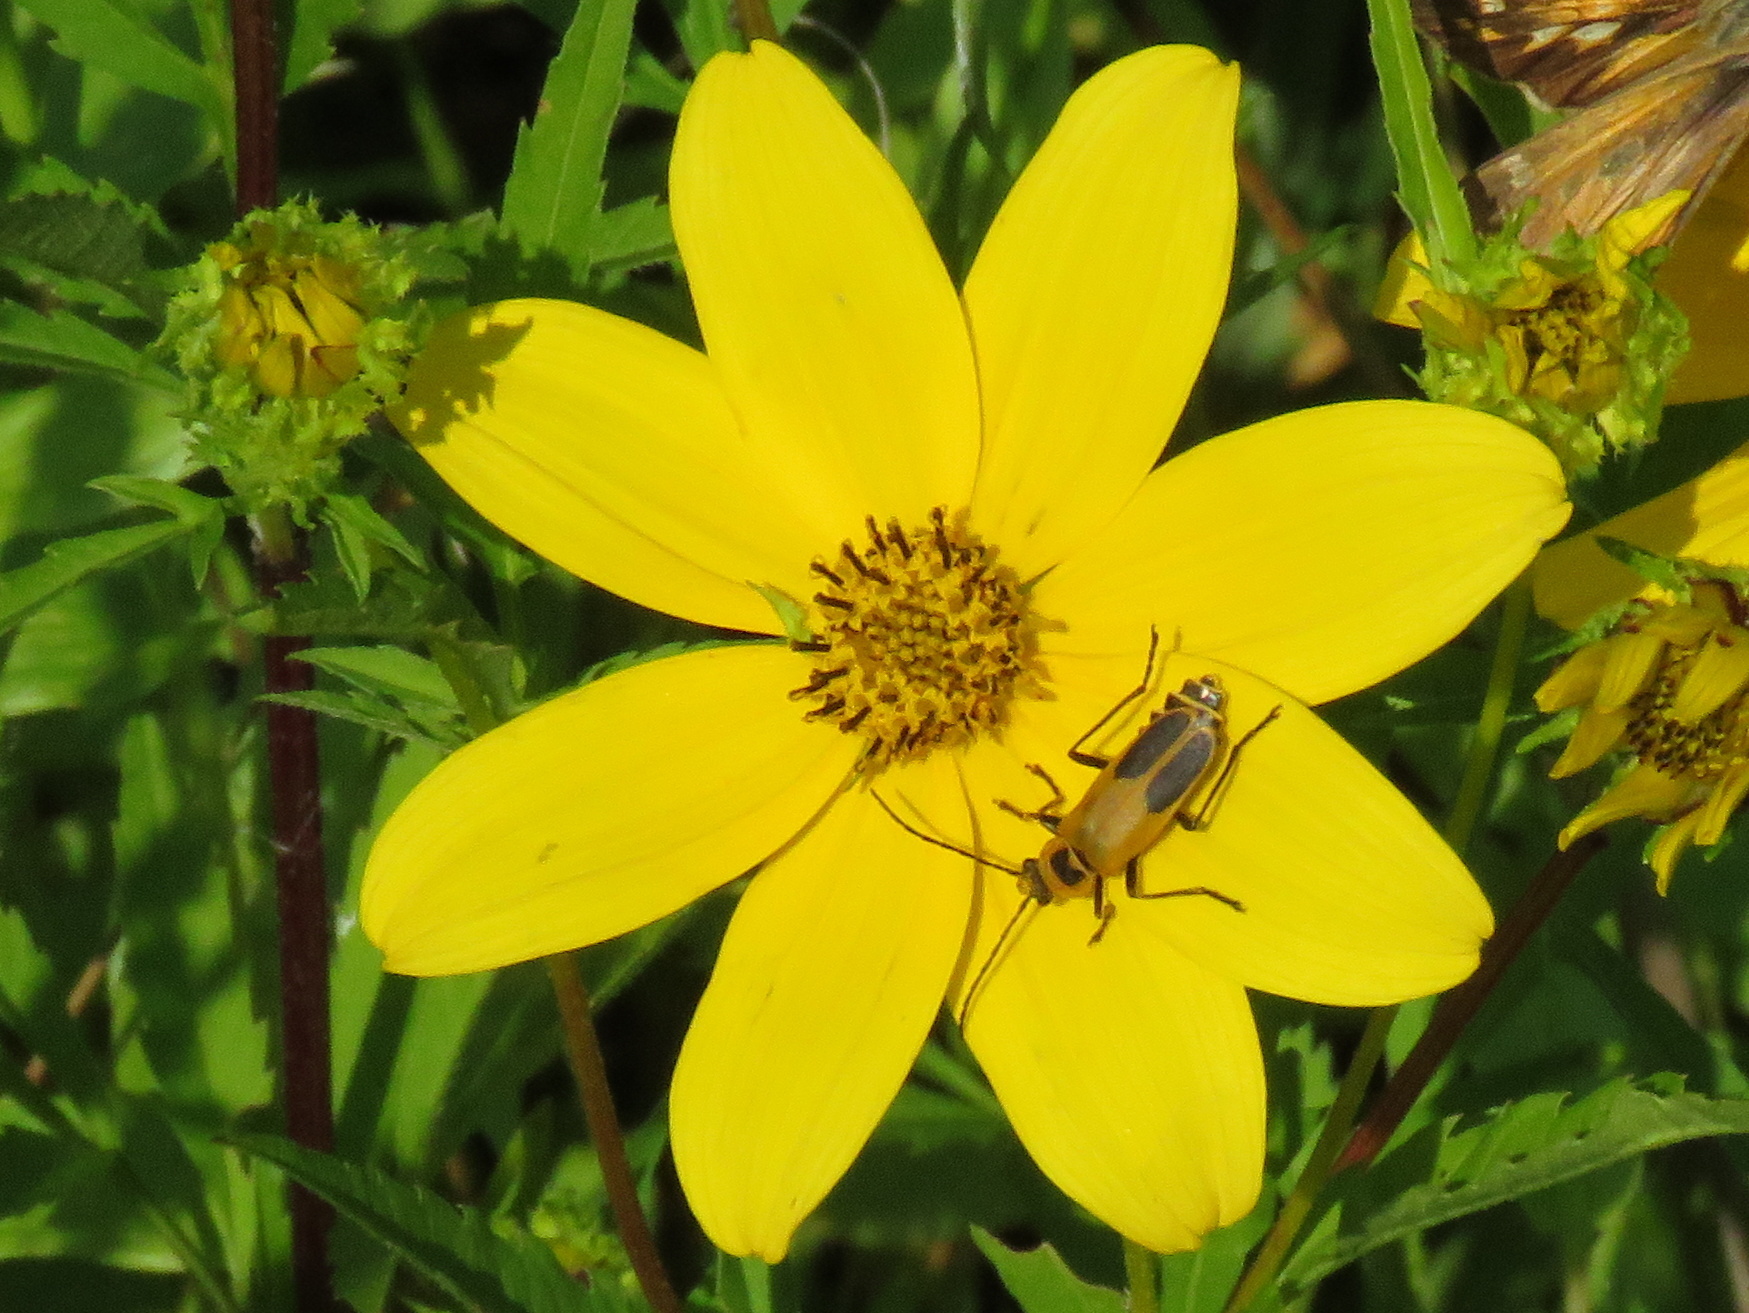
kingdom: Animalia
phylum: Arthropoda
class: Insecta
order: Coleoptera
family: Cantharidae
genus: Chauliognathus
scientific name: Chauliognathus pensylvanicus
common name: Goldenrod soldier beetle
